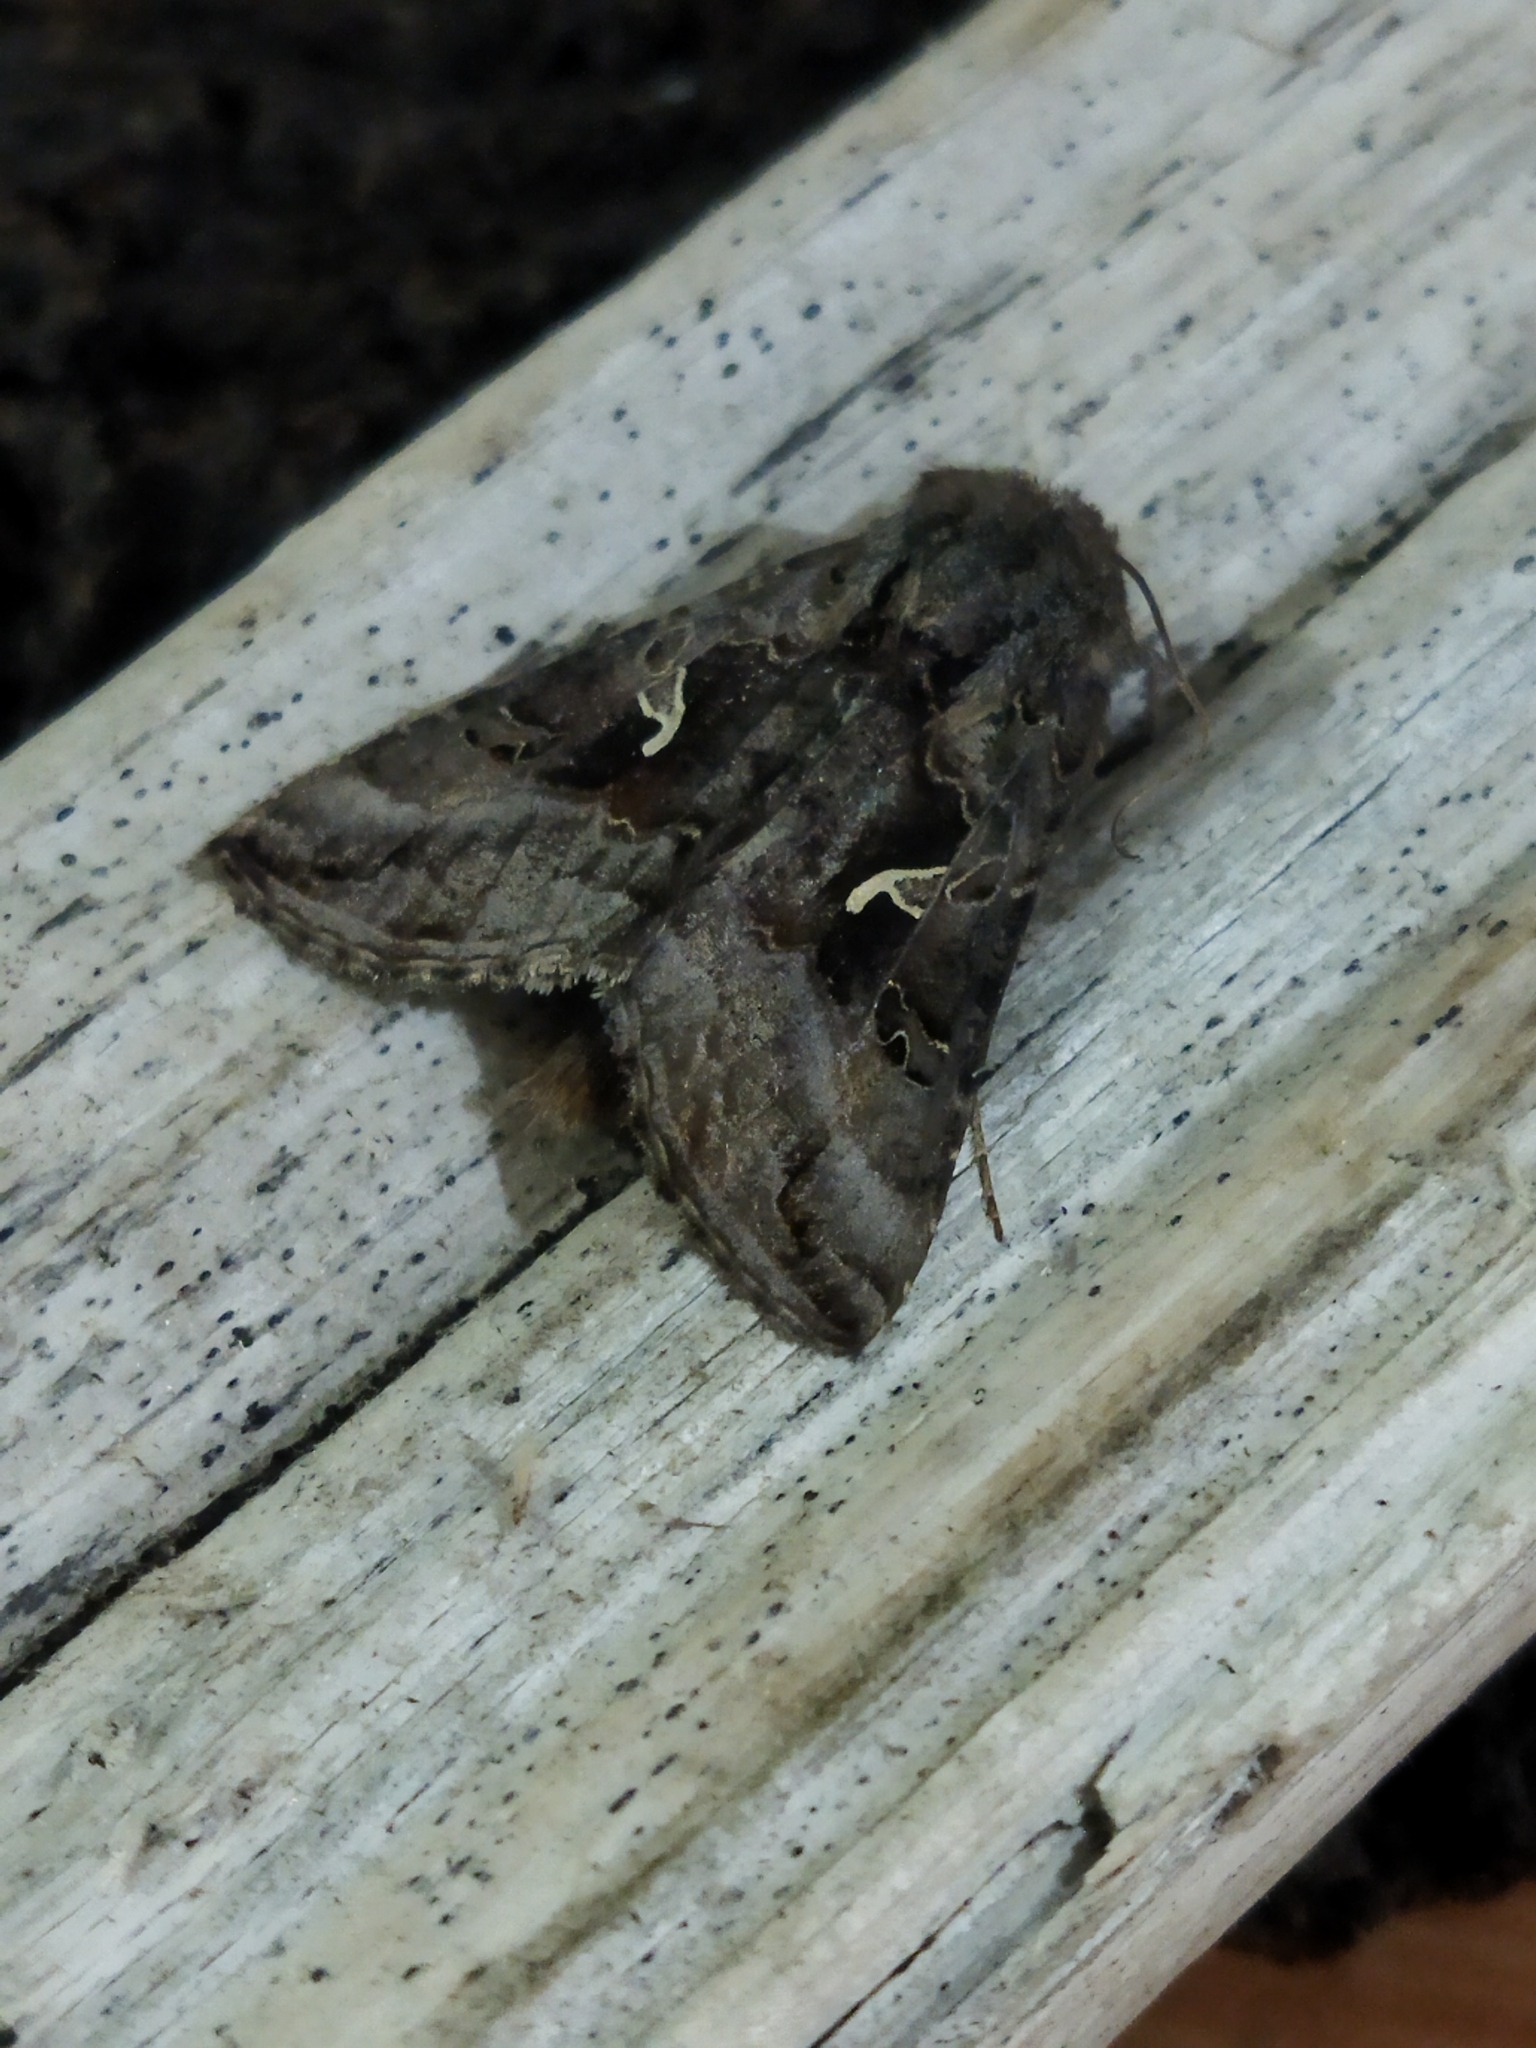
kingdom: Animalia
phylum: Arthropoda
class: Insecta
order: Lepidoptera
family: Noctuidae
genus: Autographa
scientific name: Autographa gamma
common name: Silver y
